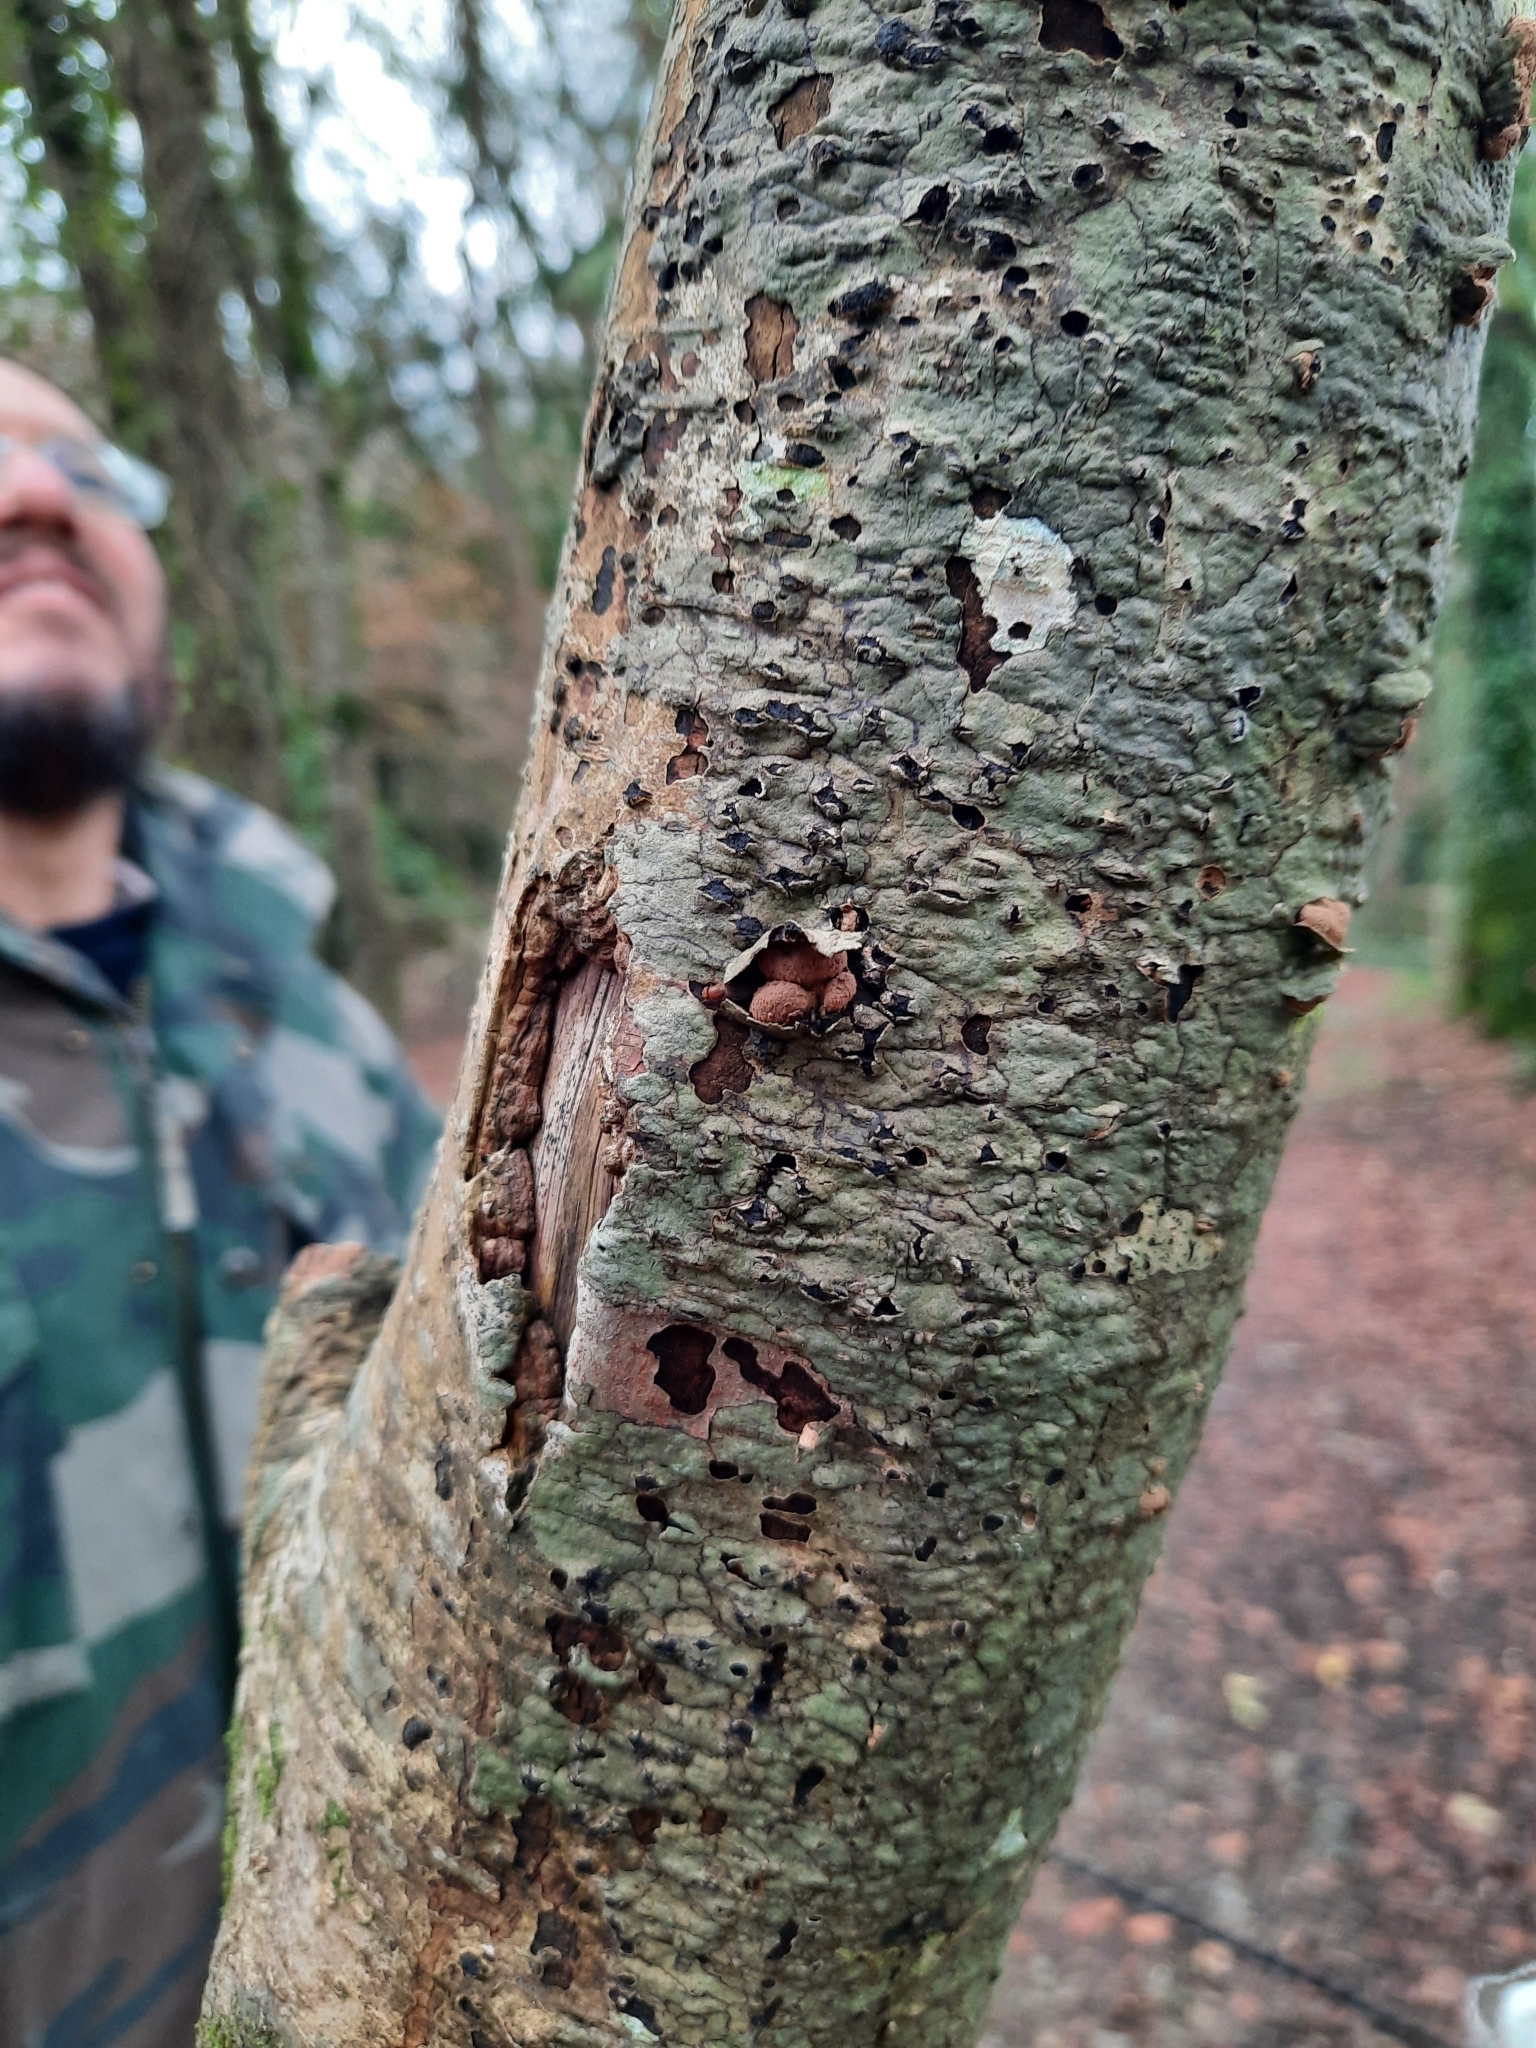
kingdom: Fungi
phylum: Ascomycota
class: Leotiomycetes
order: Helotiales
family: Cenangiaceae
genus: Encoelia
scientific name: Encoelia furfuracea
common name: Spring hazelcup
